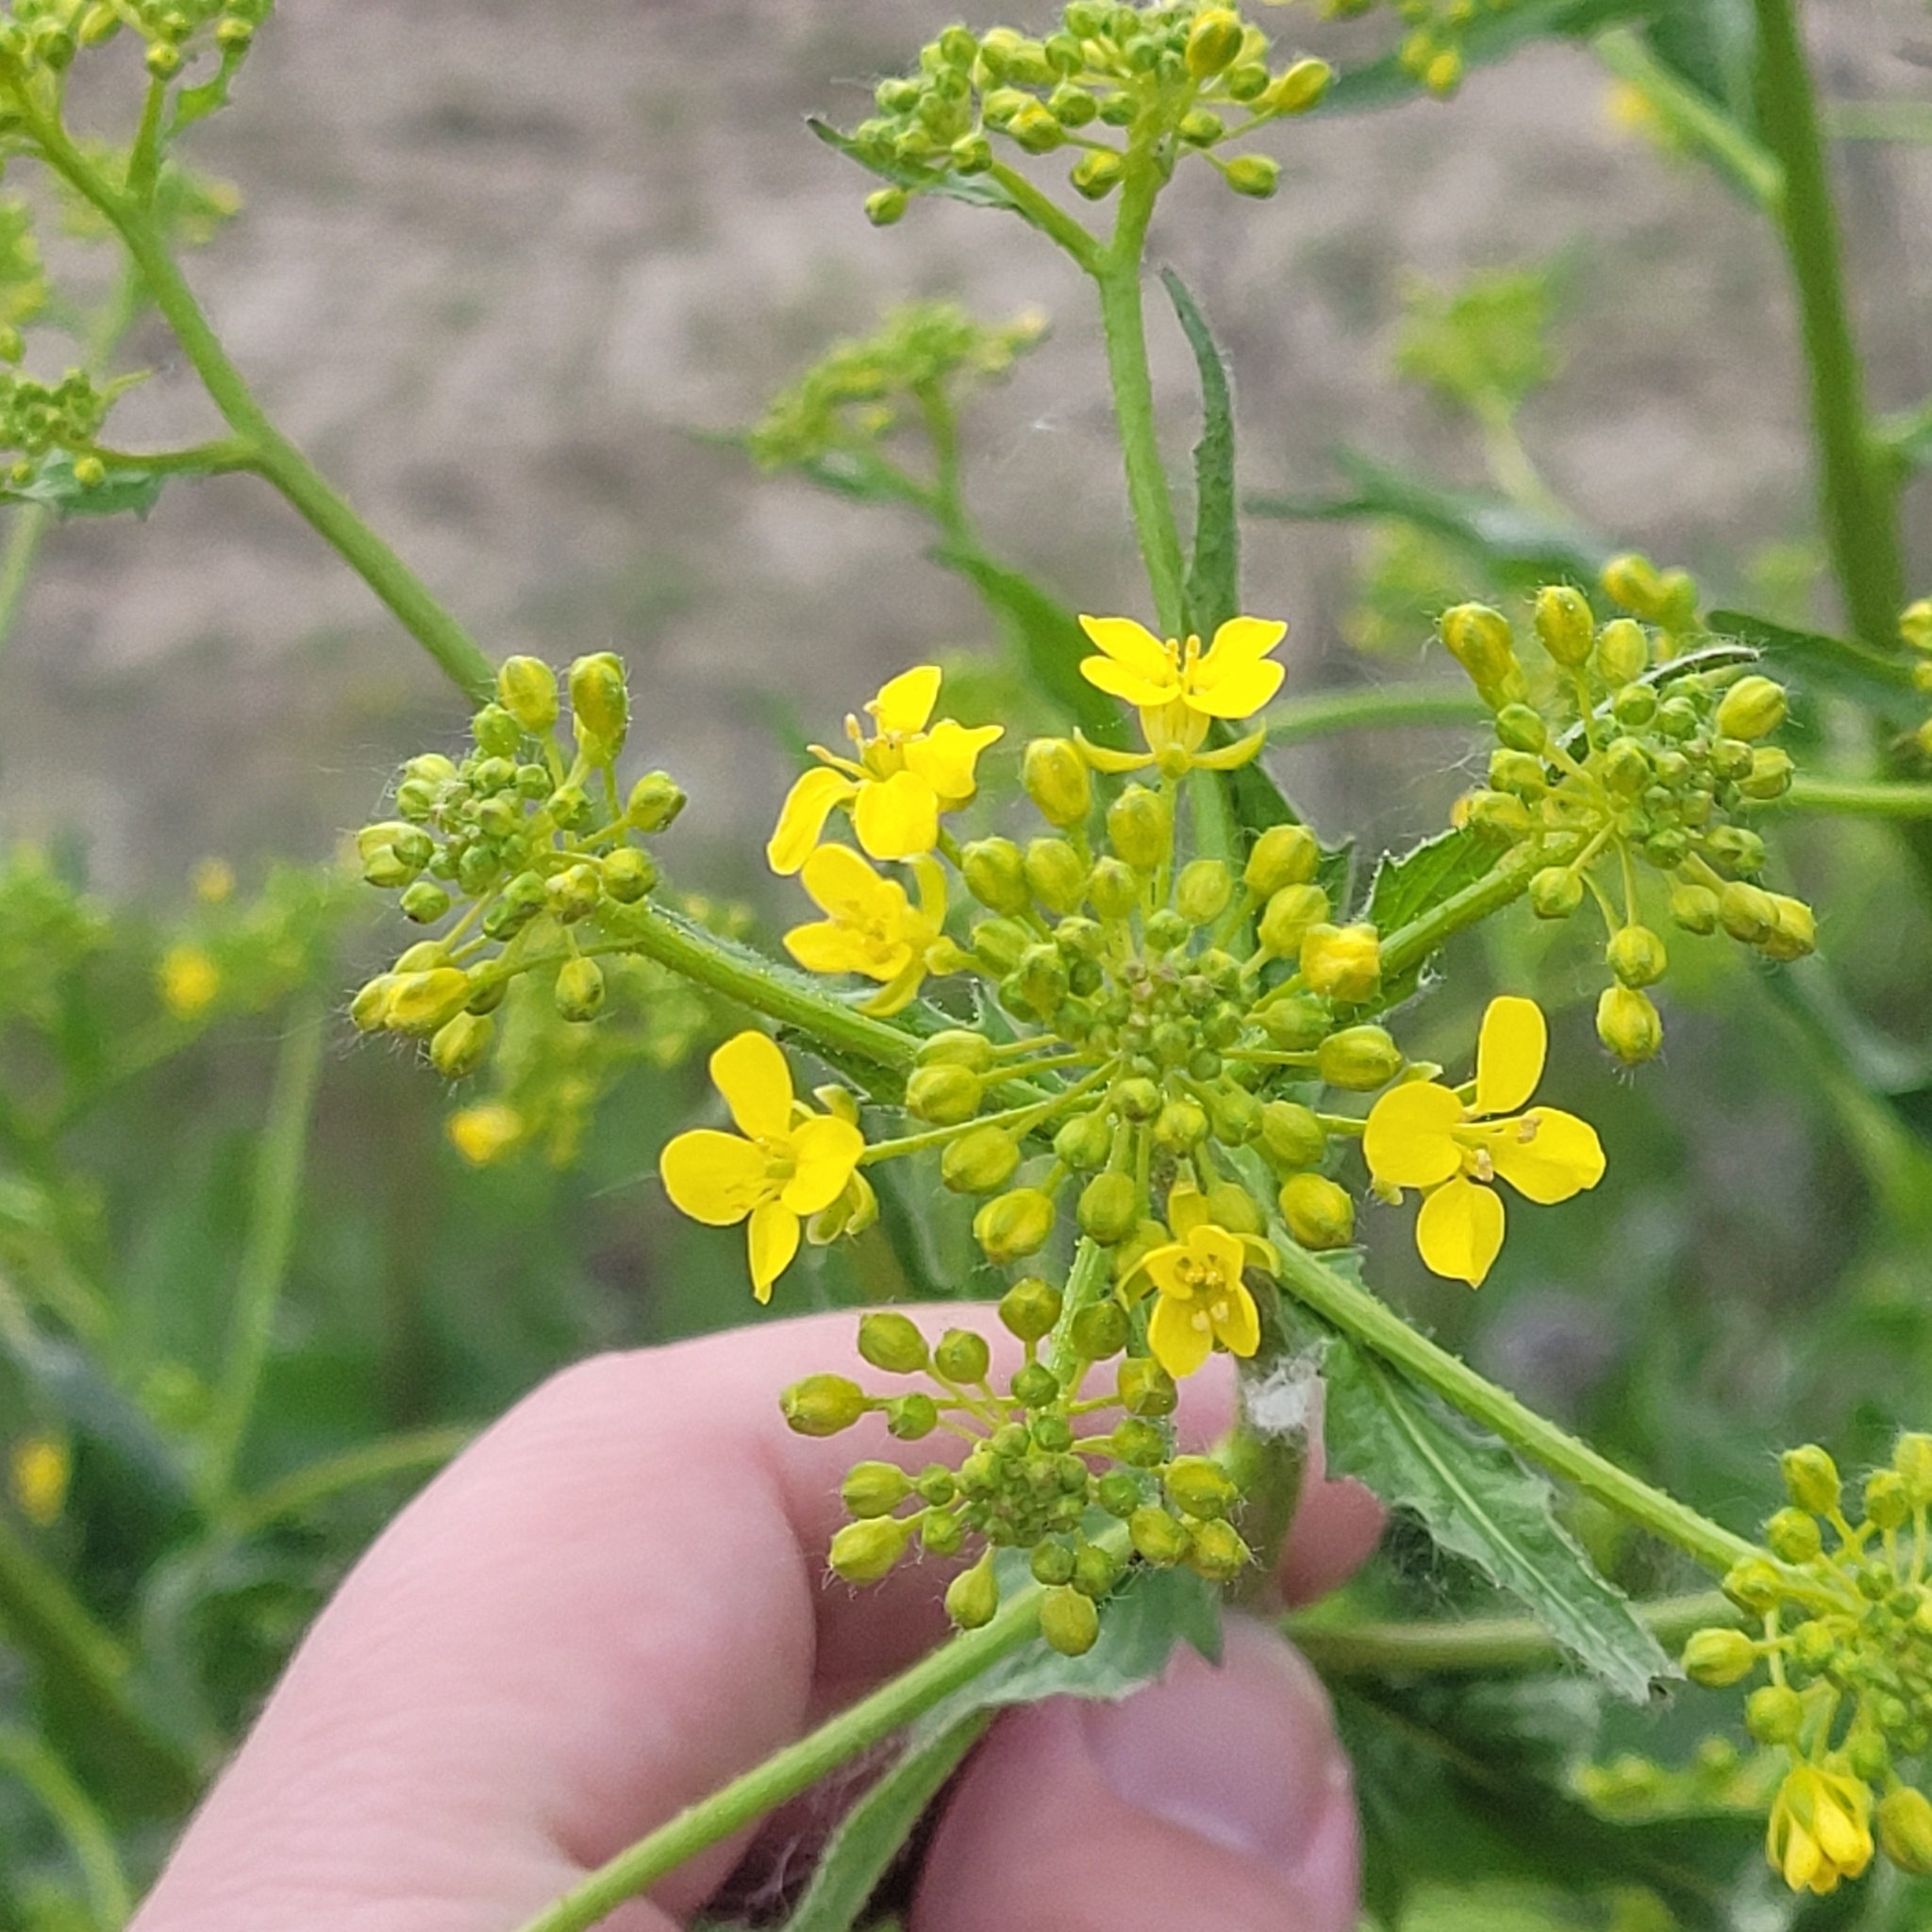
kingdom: Plantae
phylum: Tracheophyta
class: Magnoliopsida
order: Brassicales
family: Brassicaceae
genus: Bunias
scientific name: Bunias orientalis
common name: Warty-cabbage
